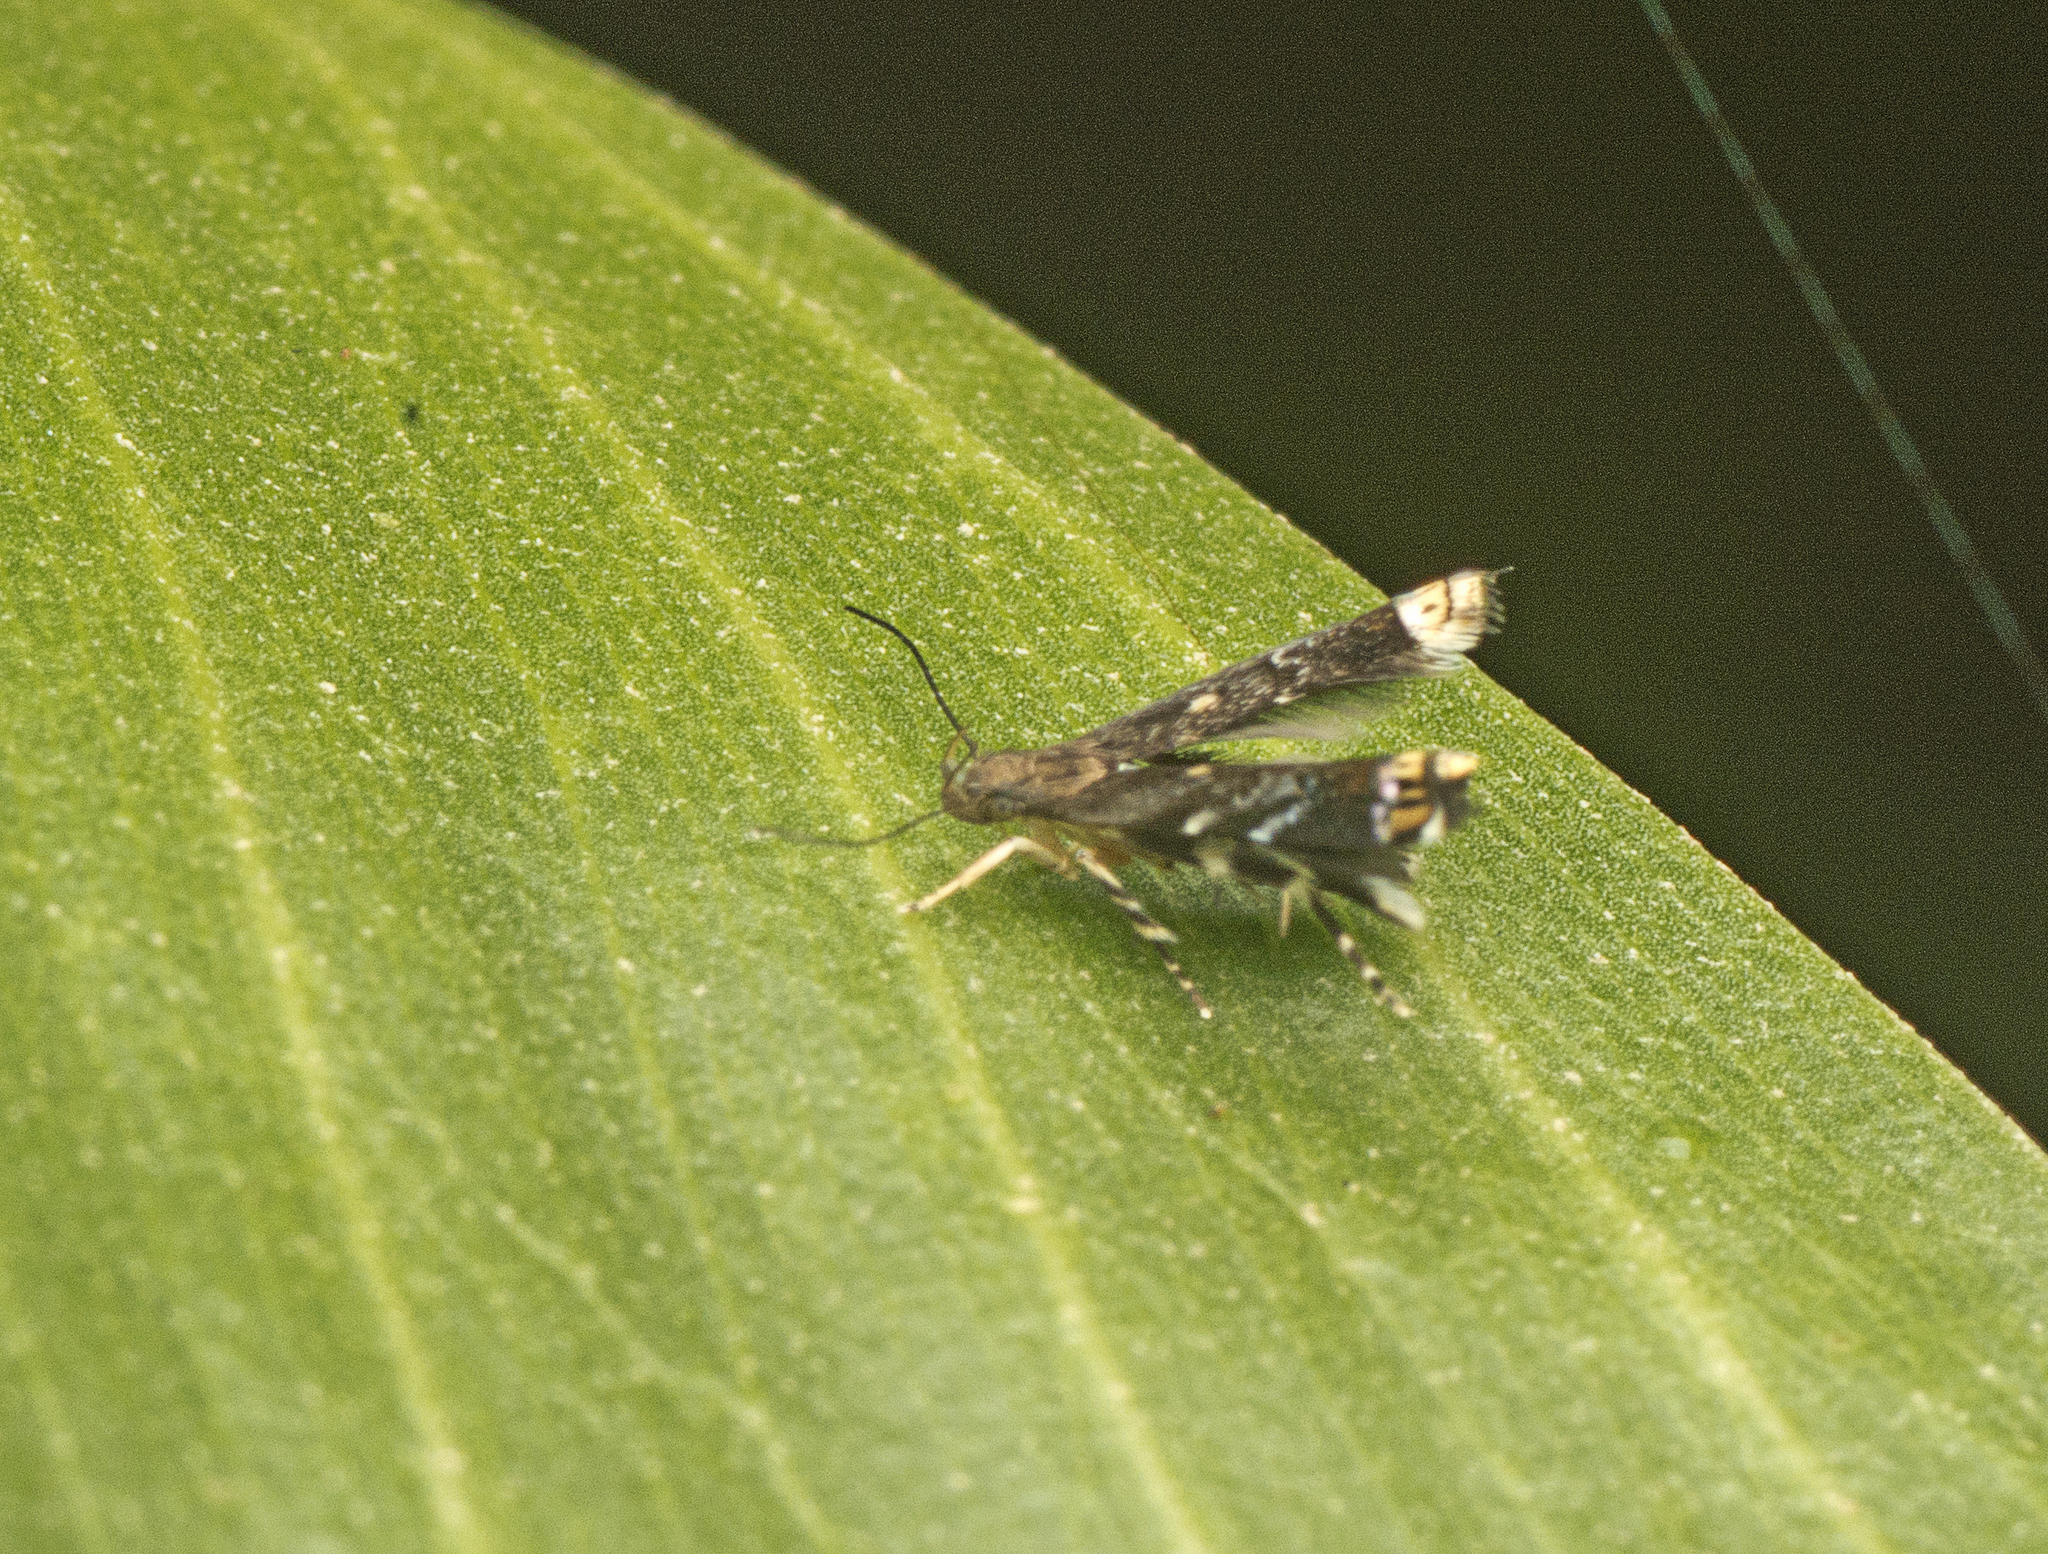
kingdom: Animalia
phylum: Arthropoda
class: Insecta
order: Lepidoptera
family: Gelechiidae
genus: Onebala
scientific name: Onebala
